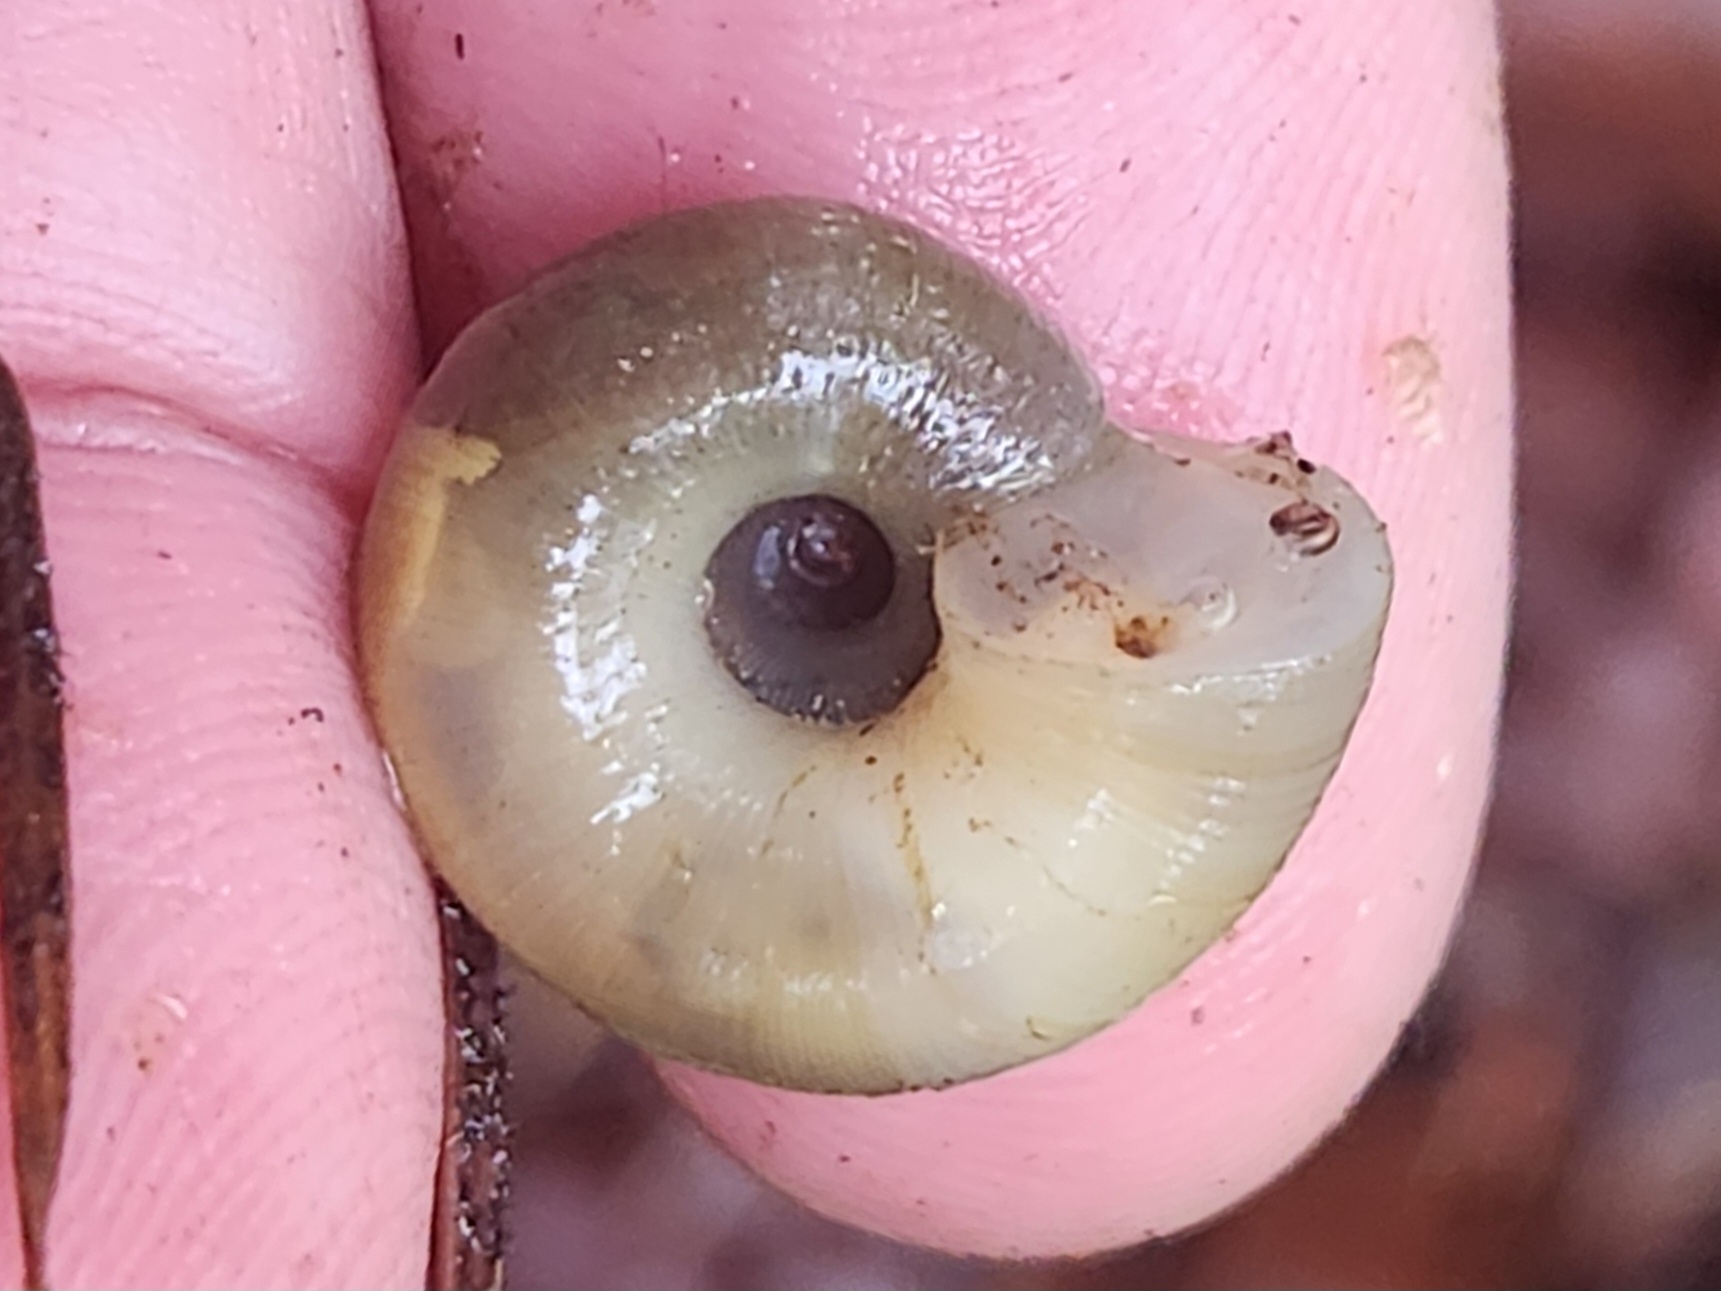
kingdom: Animalia
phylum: Mollusca
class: Gastropoda
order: Stylommatophora
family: Haplotrematidae
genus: Ancotrema
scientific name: Ancotrema sportella
